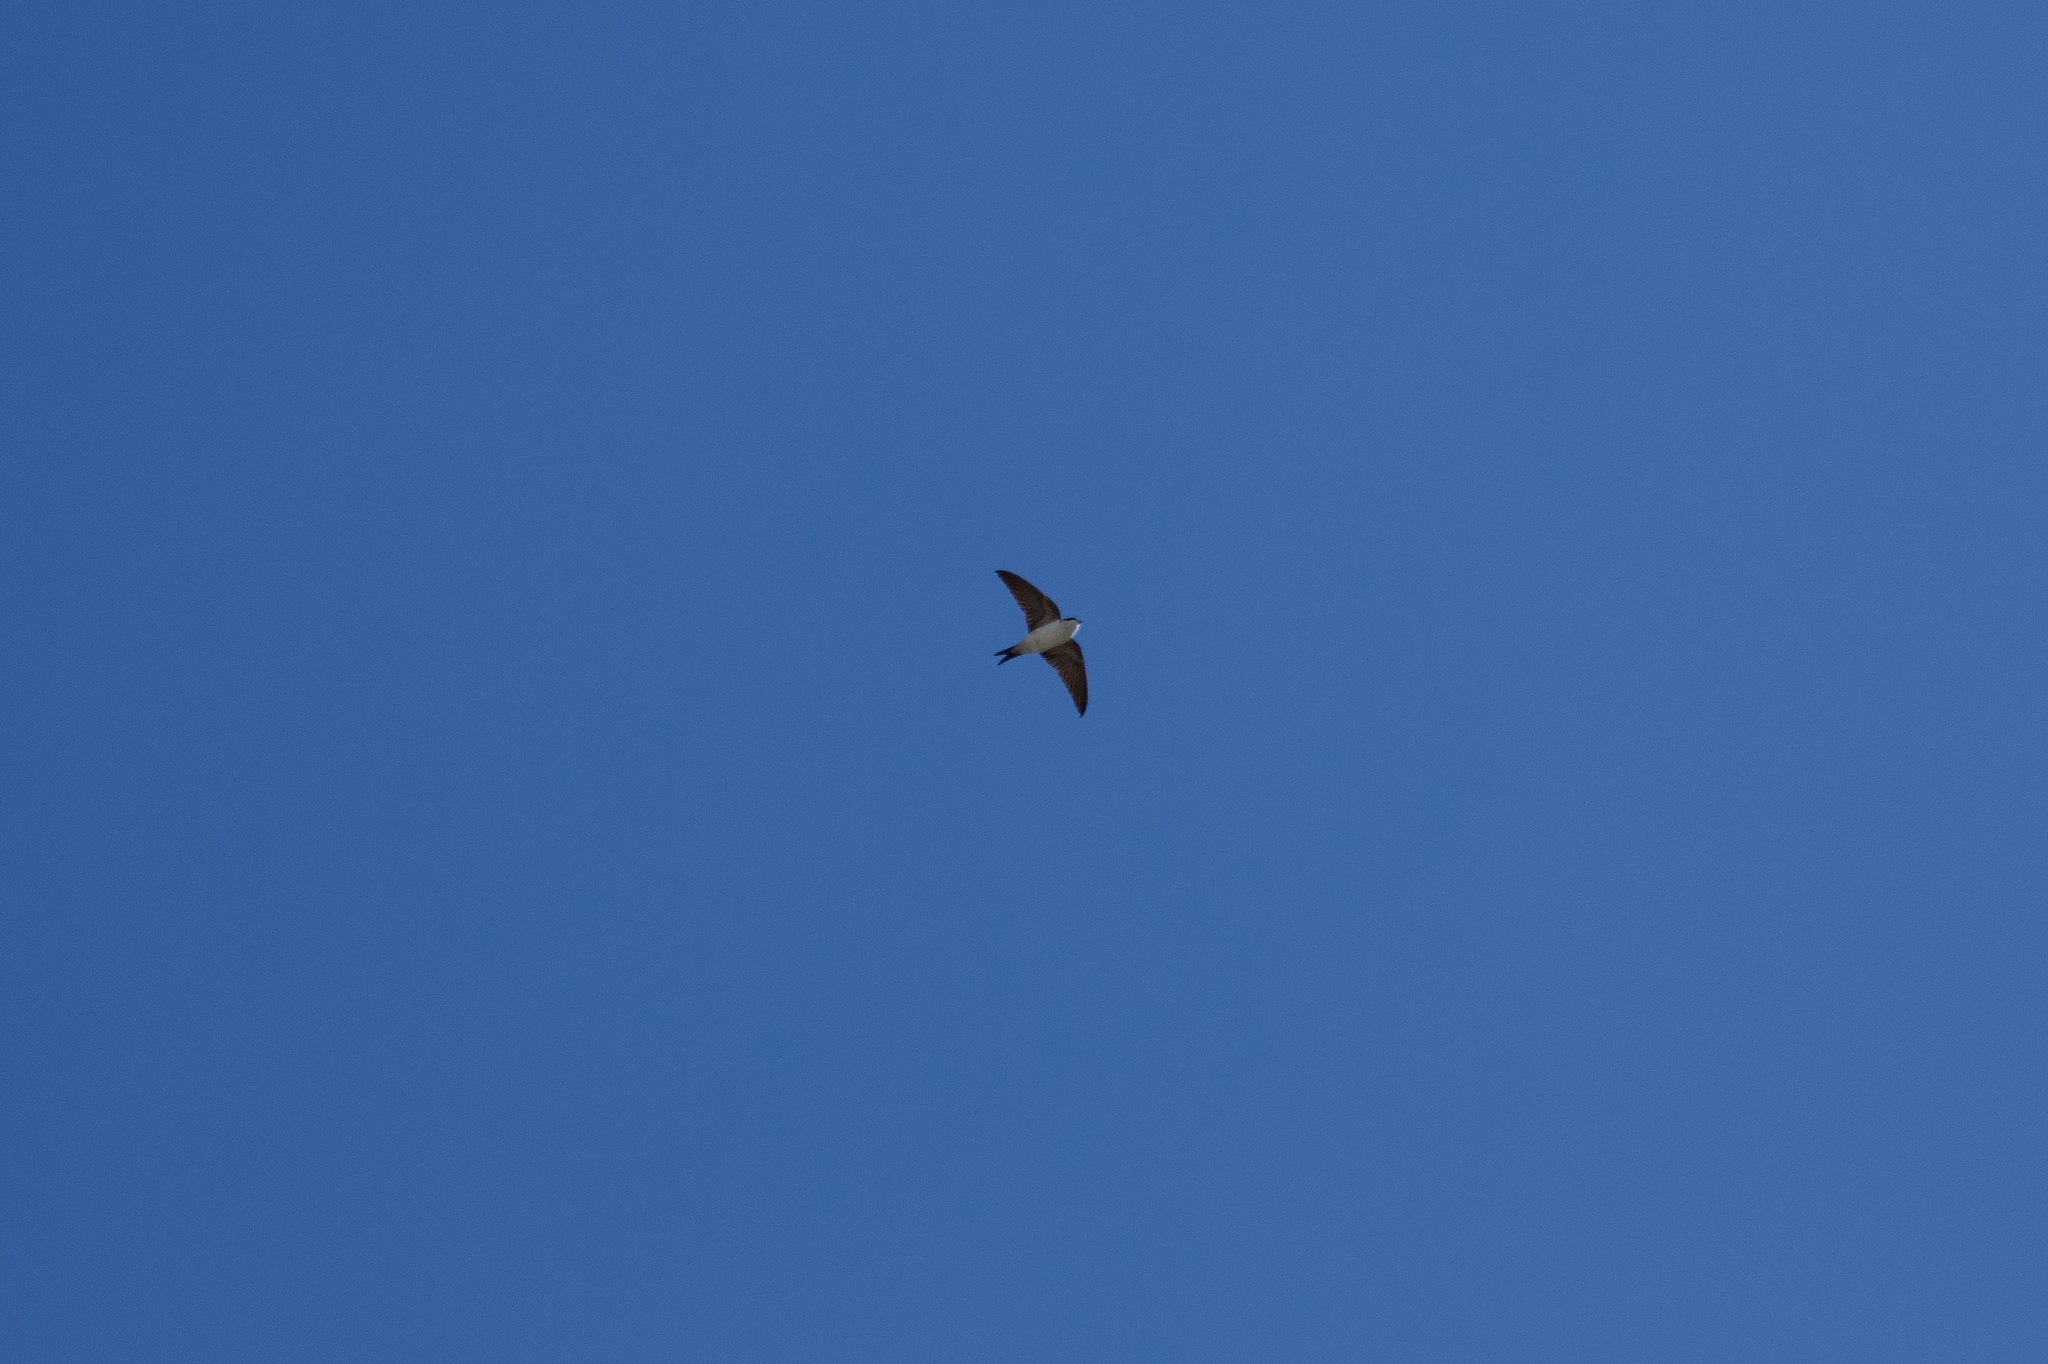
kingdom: Animalia
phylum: Chordata
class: Aves
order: Passeriformes
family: Hirundinidae
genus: Delichon
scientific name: Delichon urbicum
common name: Common house martin
